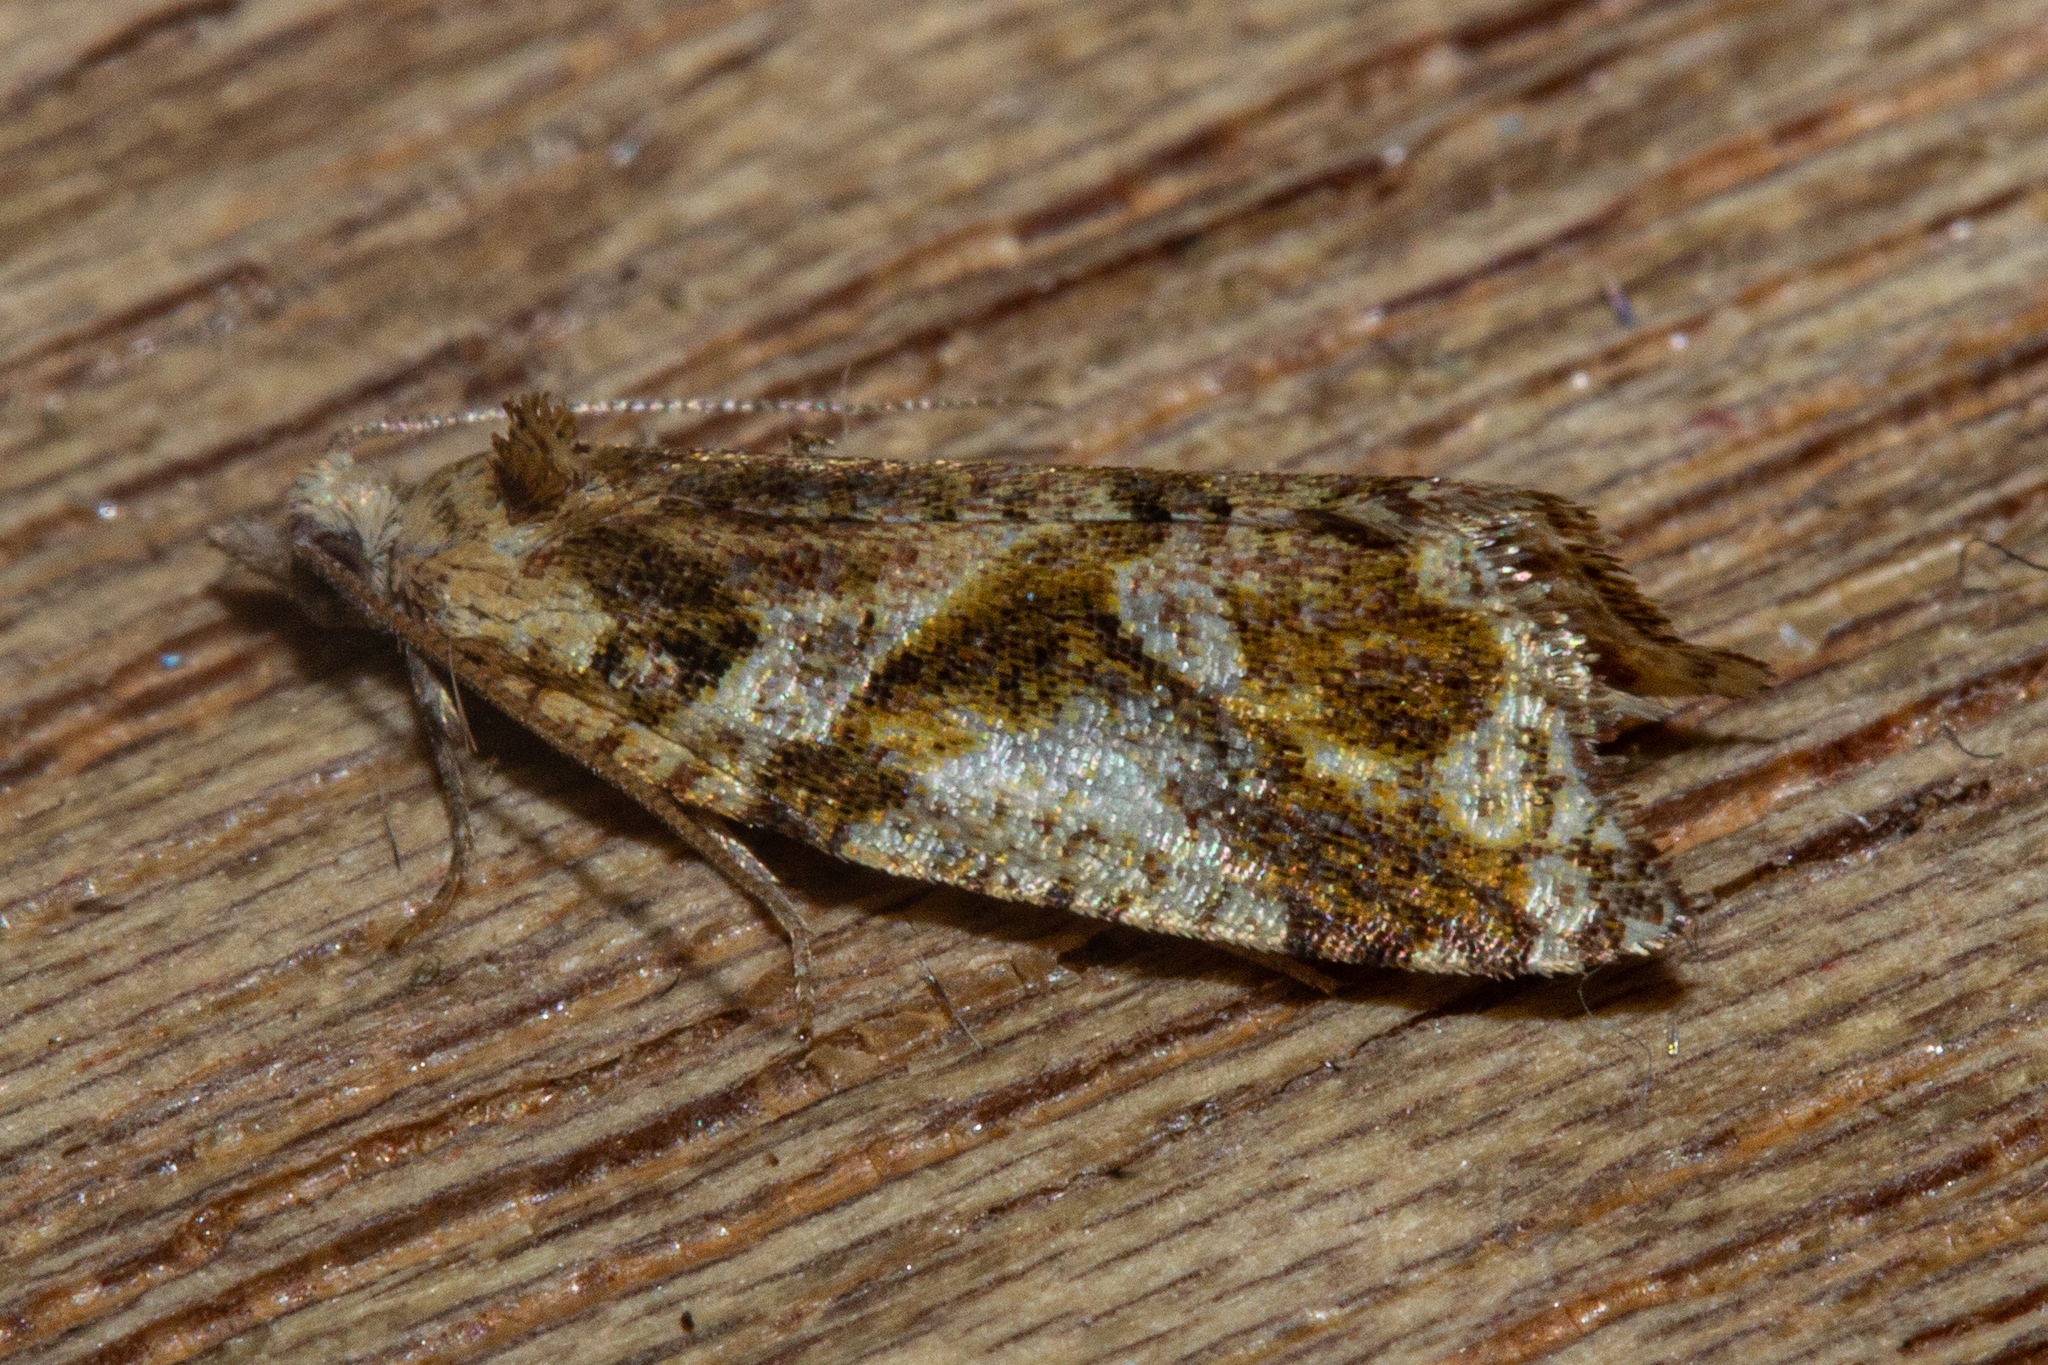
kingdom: Animalia
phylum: Arthropoda
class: Insecta
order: Lepidoptera
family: Tortricidae
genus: Pyrgotis
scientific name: Pyrgotis plagiatana
